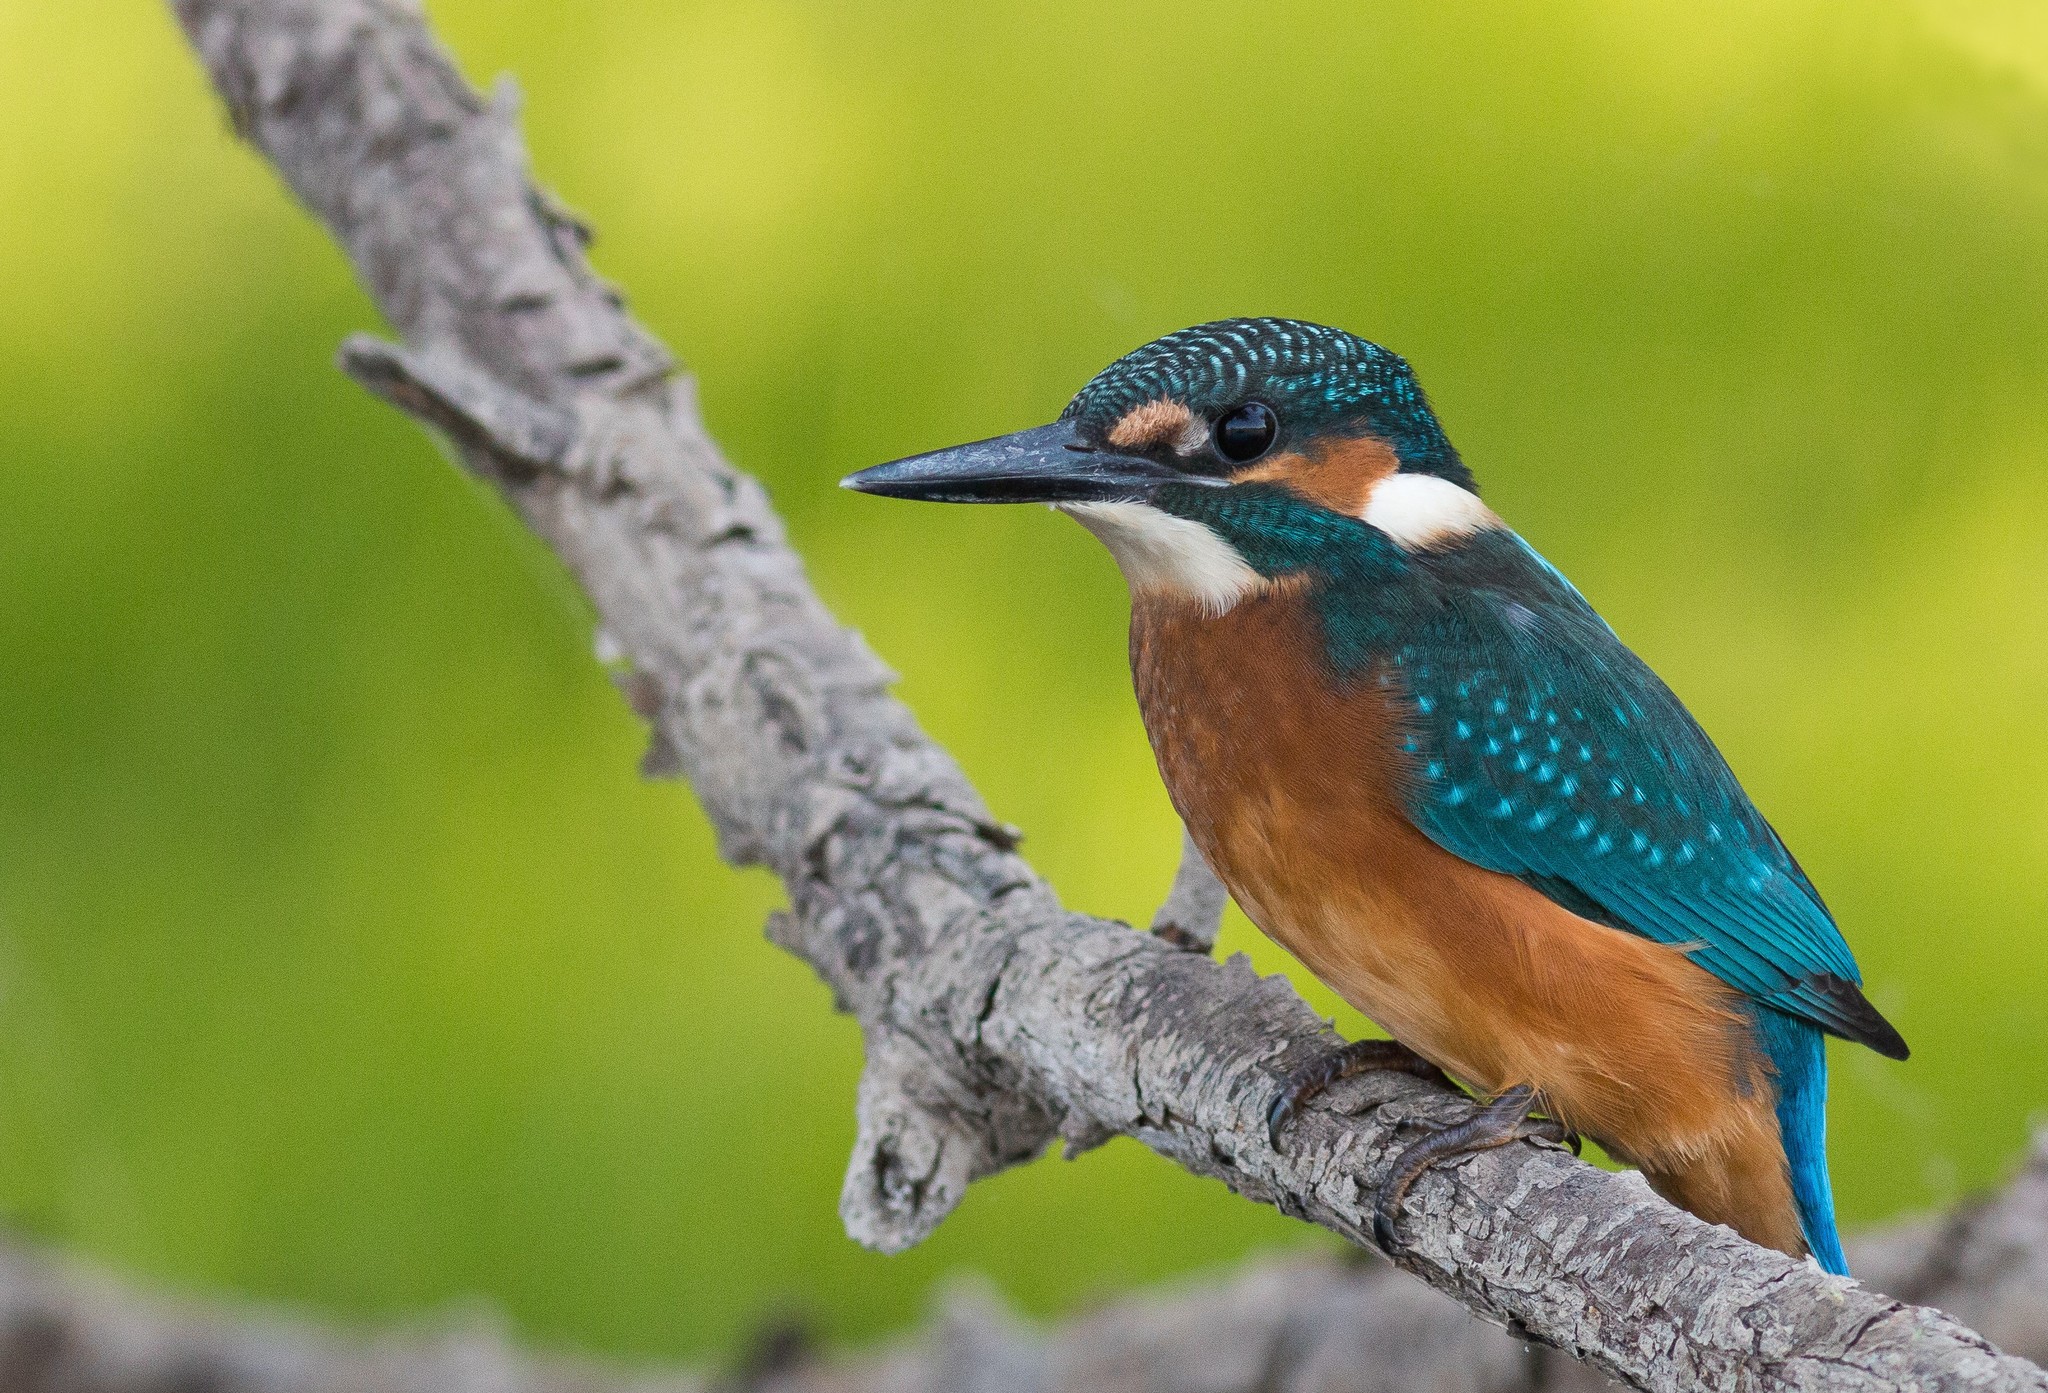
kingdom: Animalia
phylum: Chordata
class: Aves
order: Coraciiformes
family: Alcedinidae
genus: Alcedo
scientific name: Alcedo atthis
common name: Common kingfisher
